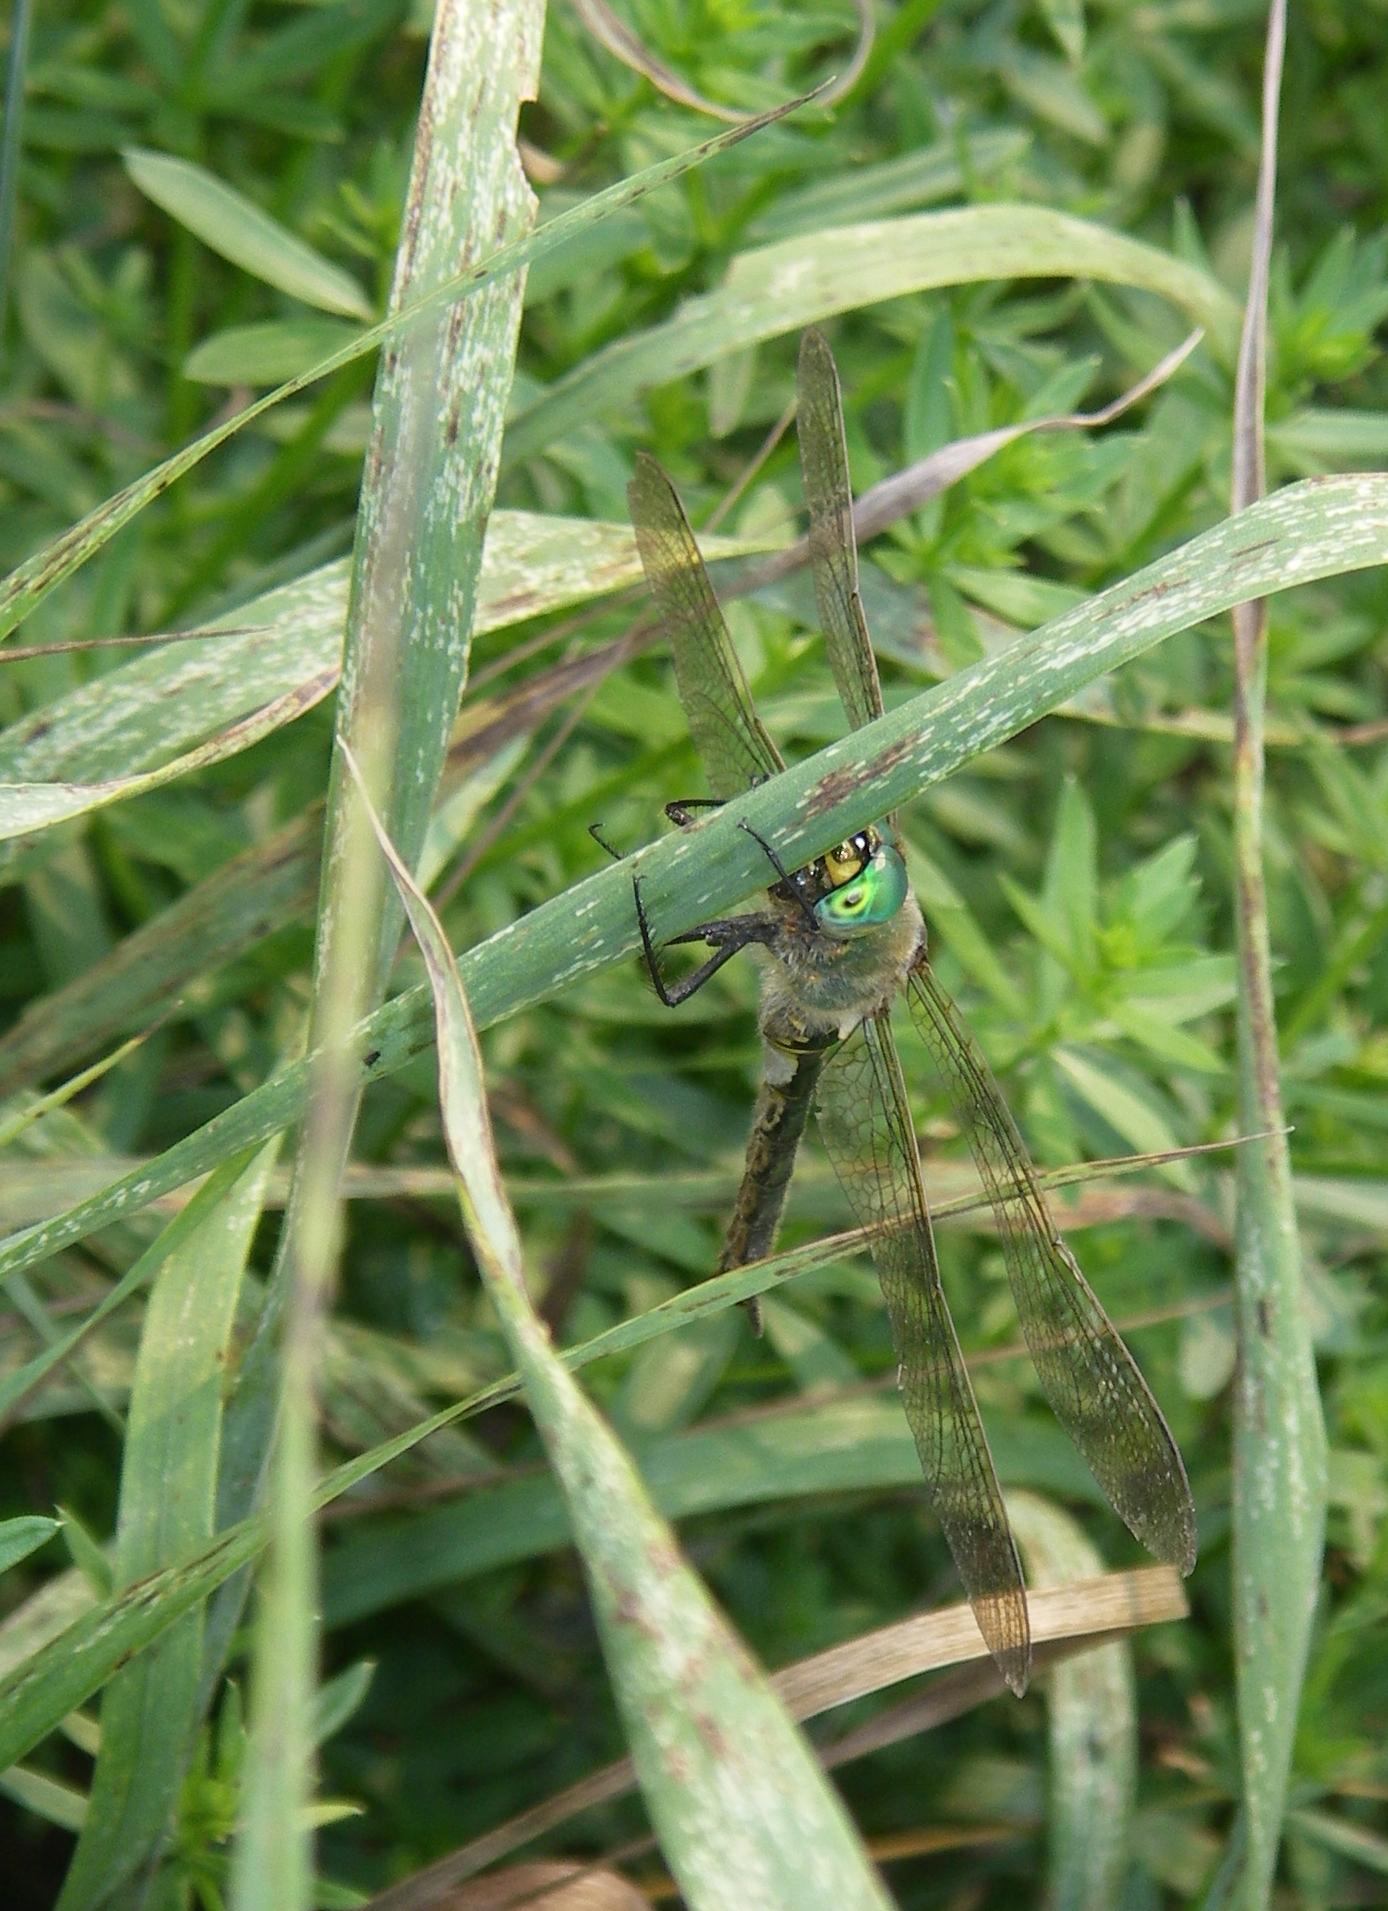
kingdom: Animalia
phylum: Arthropoda
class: Insecta
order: Odonata
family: Corduliidae
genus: Somatochlora
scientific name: Somatochlora metallica
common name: Brilliant emerald
